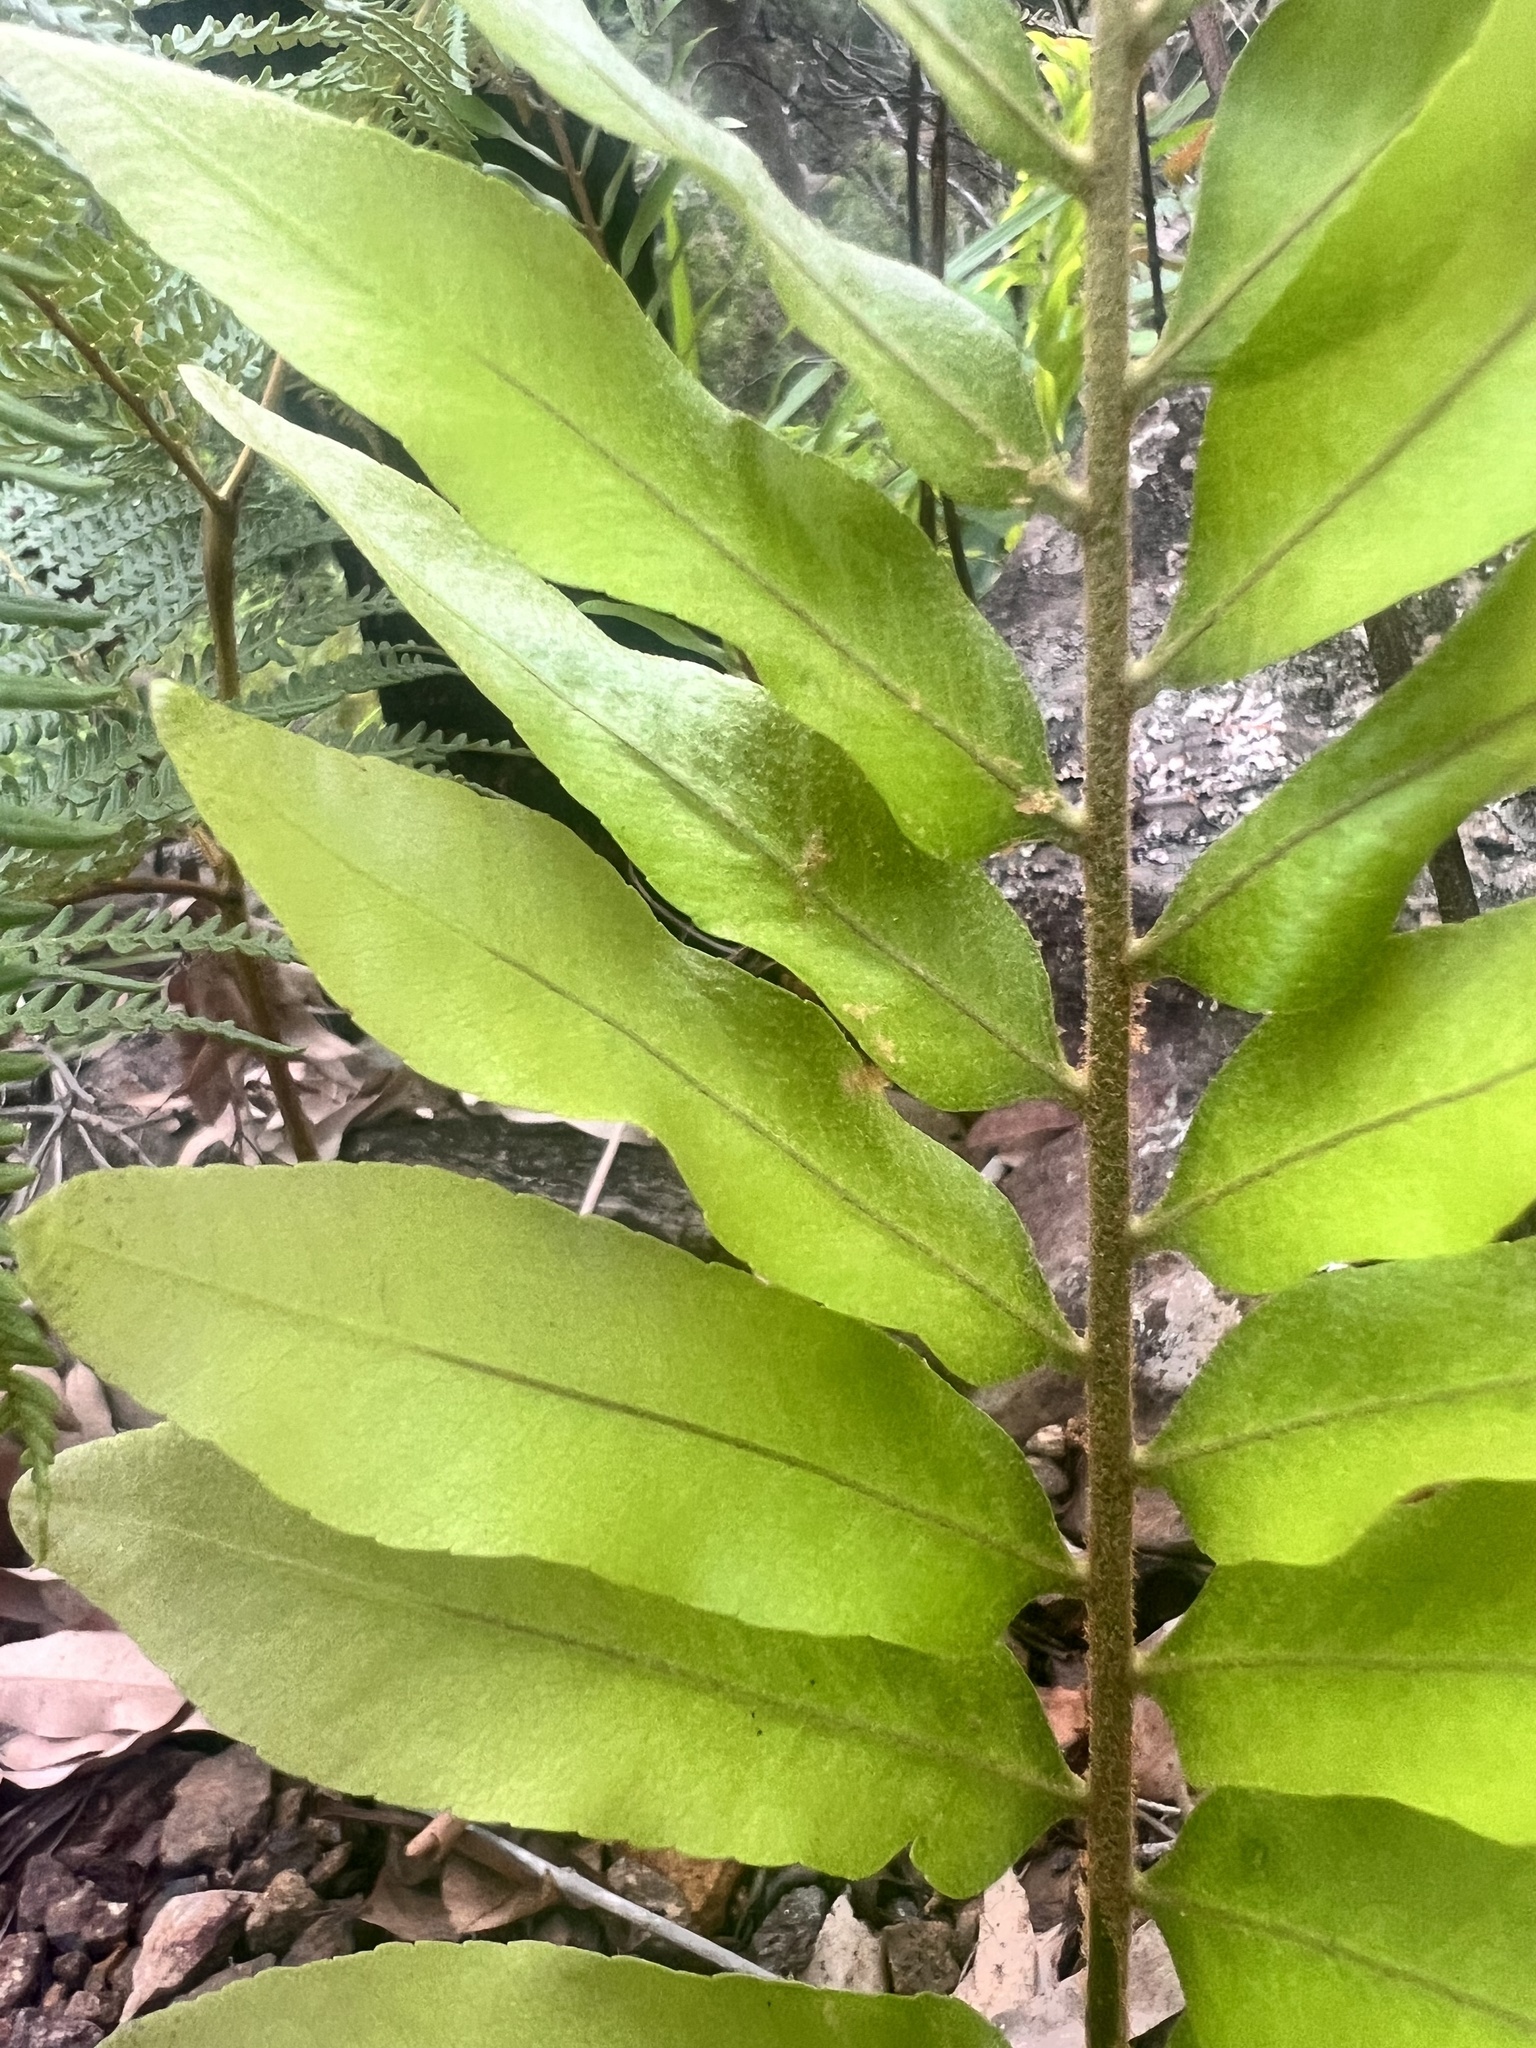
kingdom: Plantae
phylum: Tracheophyta
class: Polypodiopsida
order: Polypodiales
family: Polypodiaceae
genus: Drynaria
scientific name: Drynaria rigidula
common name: Basket fern
